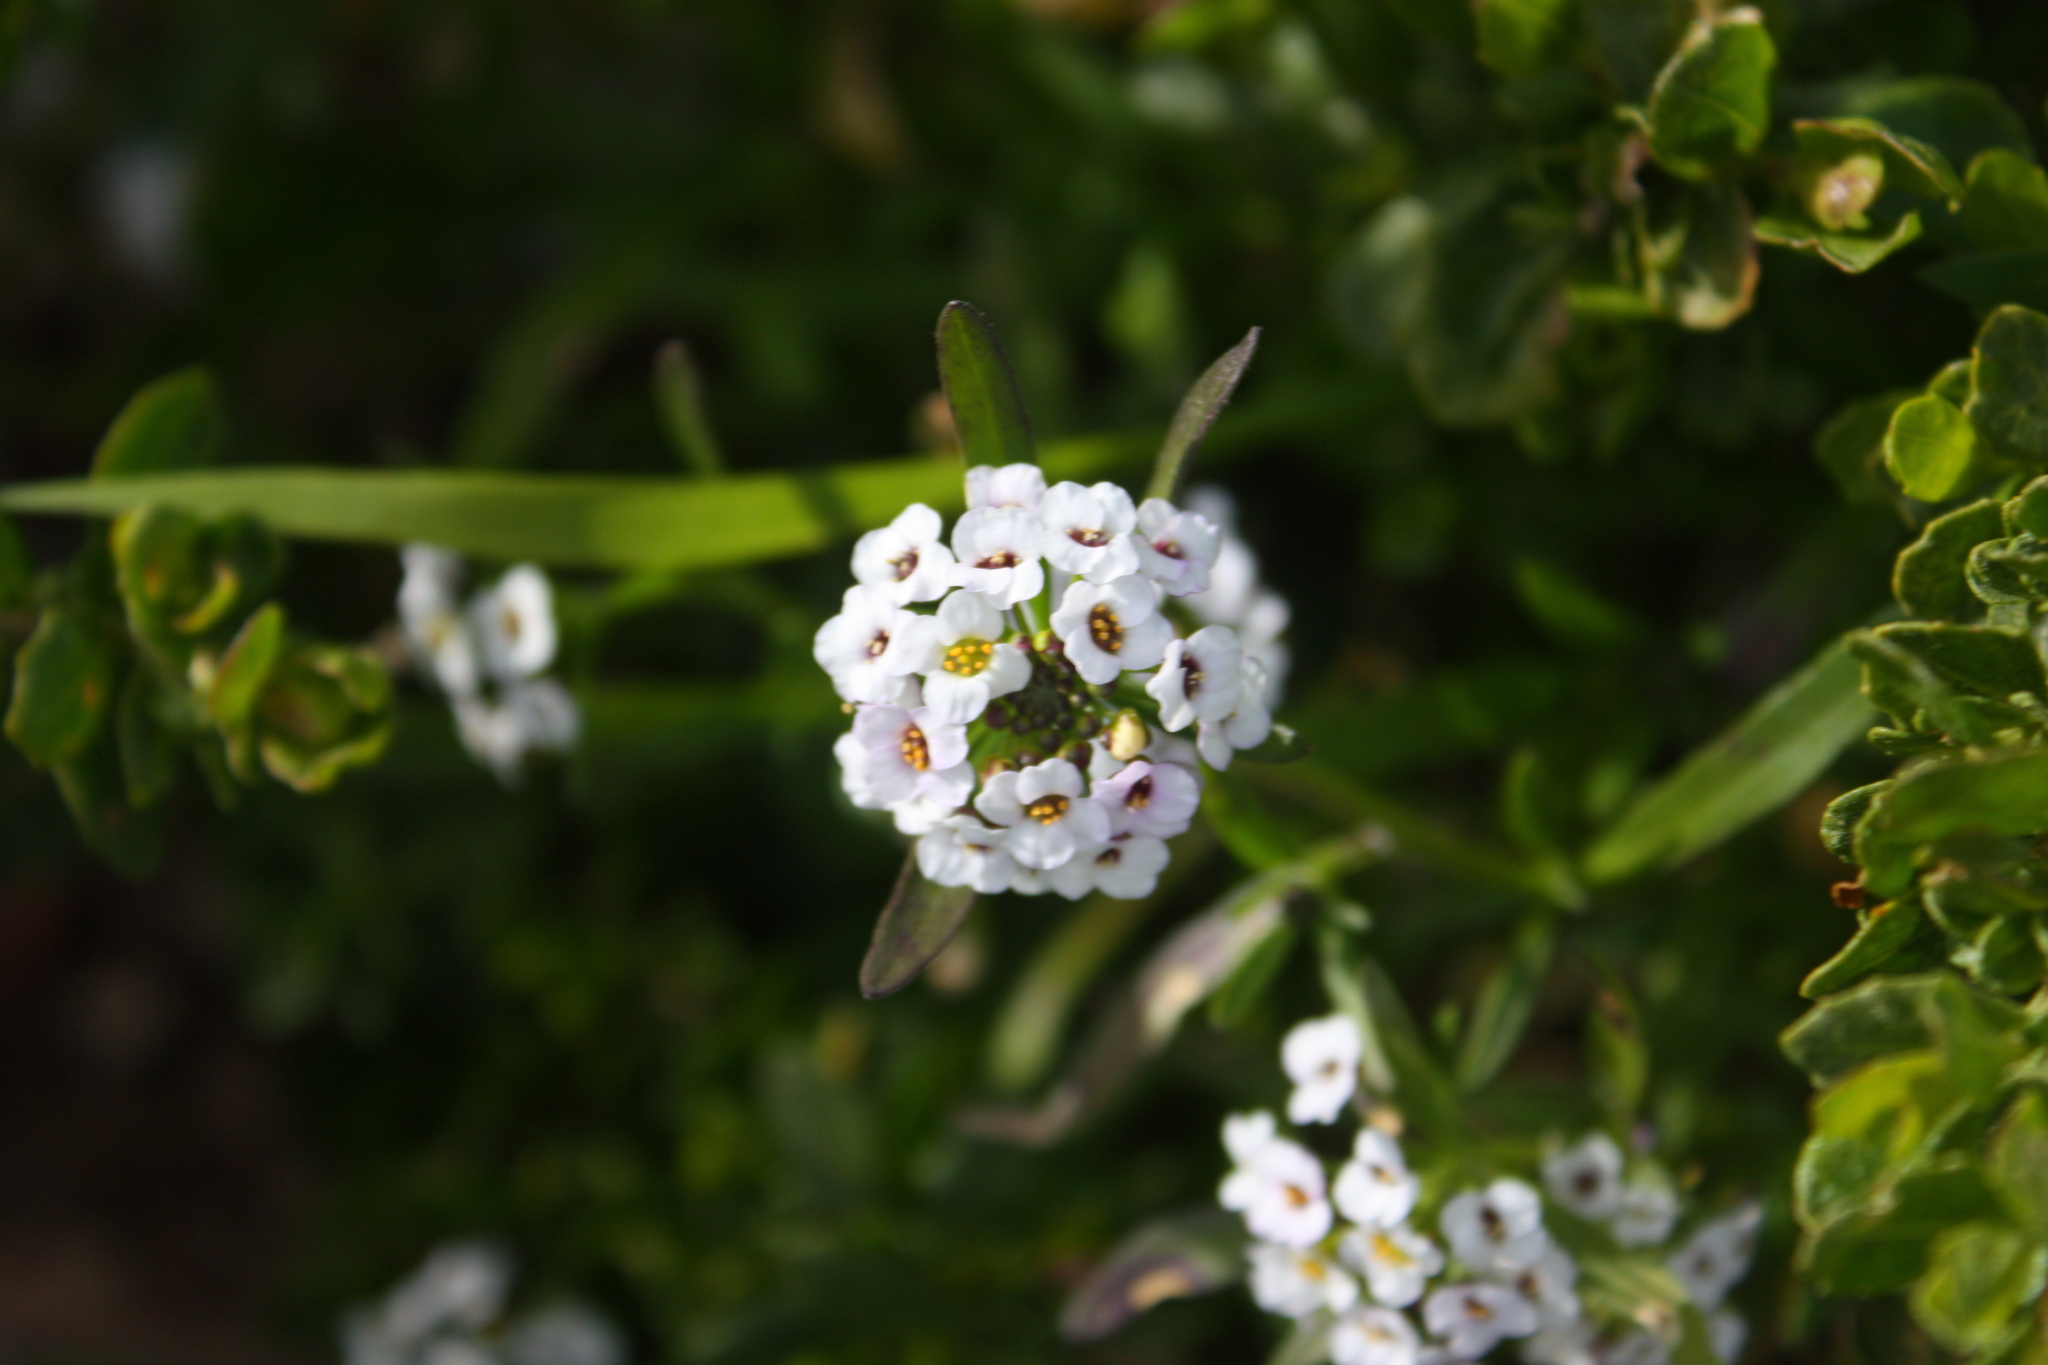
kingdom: Plantae
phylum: Tracheophyta
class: Magnoliopsida
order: Brassicales
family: Brassicaceae
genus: Lobularia
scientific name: Lobularia maritima
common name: Sweet alison
